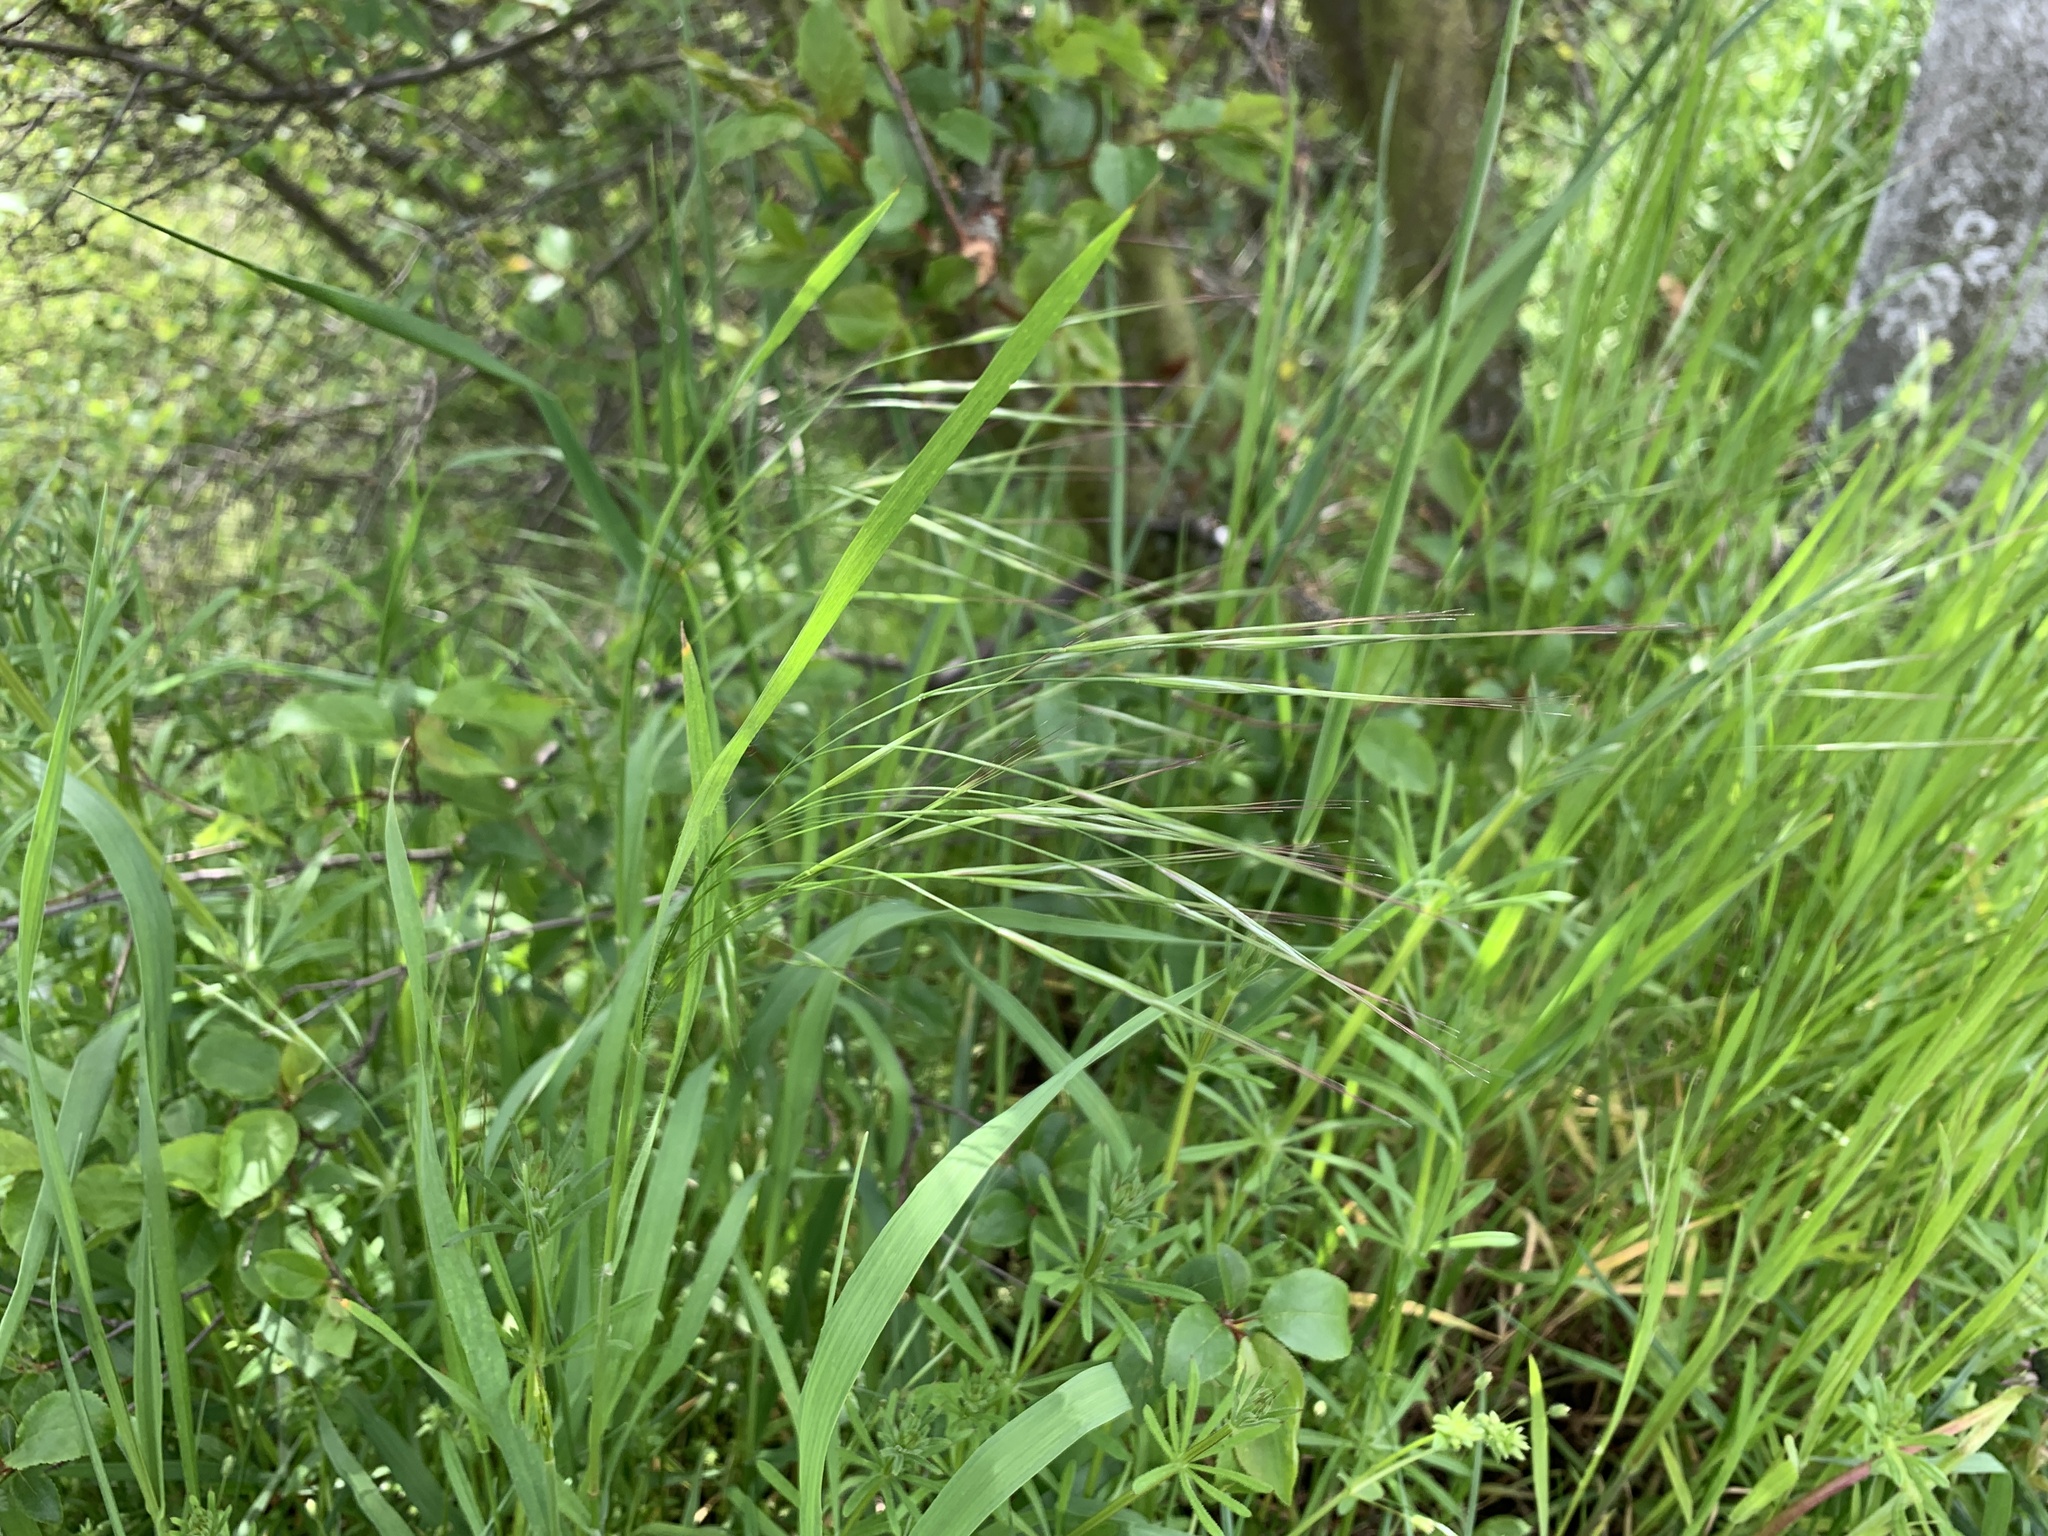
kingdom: Plantae
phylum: Tracheophyta
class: Liliopsida
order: Poales
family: Poaceae
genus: Bromus
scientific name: Bromus sterilis
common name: Poverty brome
